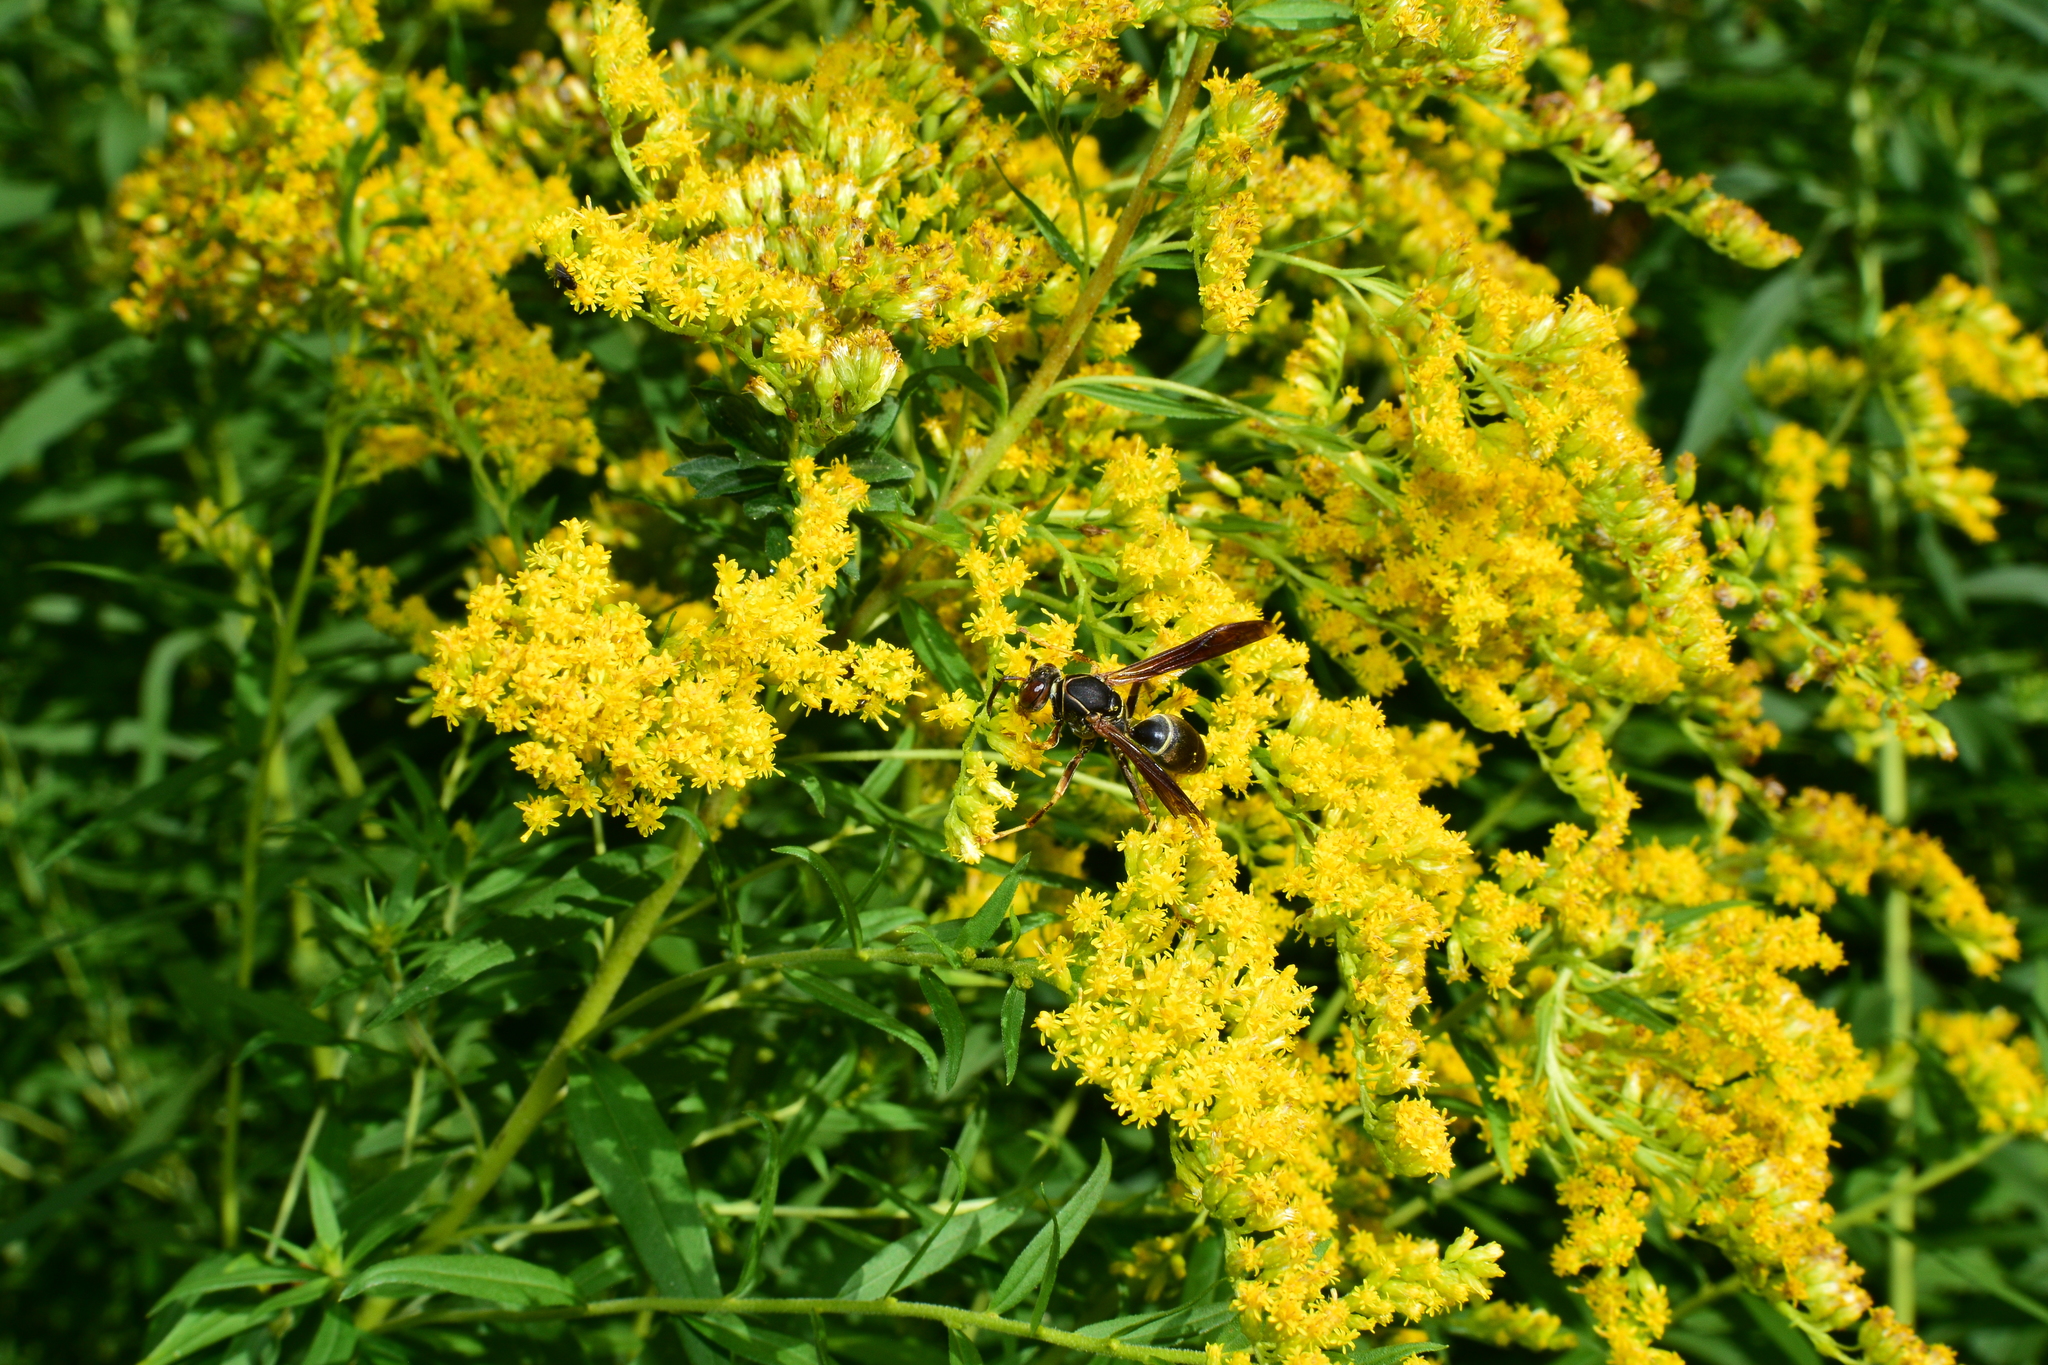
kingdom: Animalia
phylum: Arthropoda
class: Insecta
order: Hymenoptera
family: Eumenidae
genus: Polistes
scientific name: Polistes fuscatus
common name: Dark paper wasp
